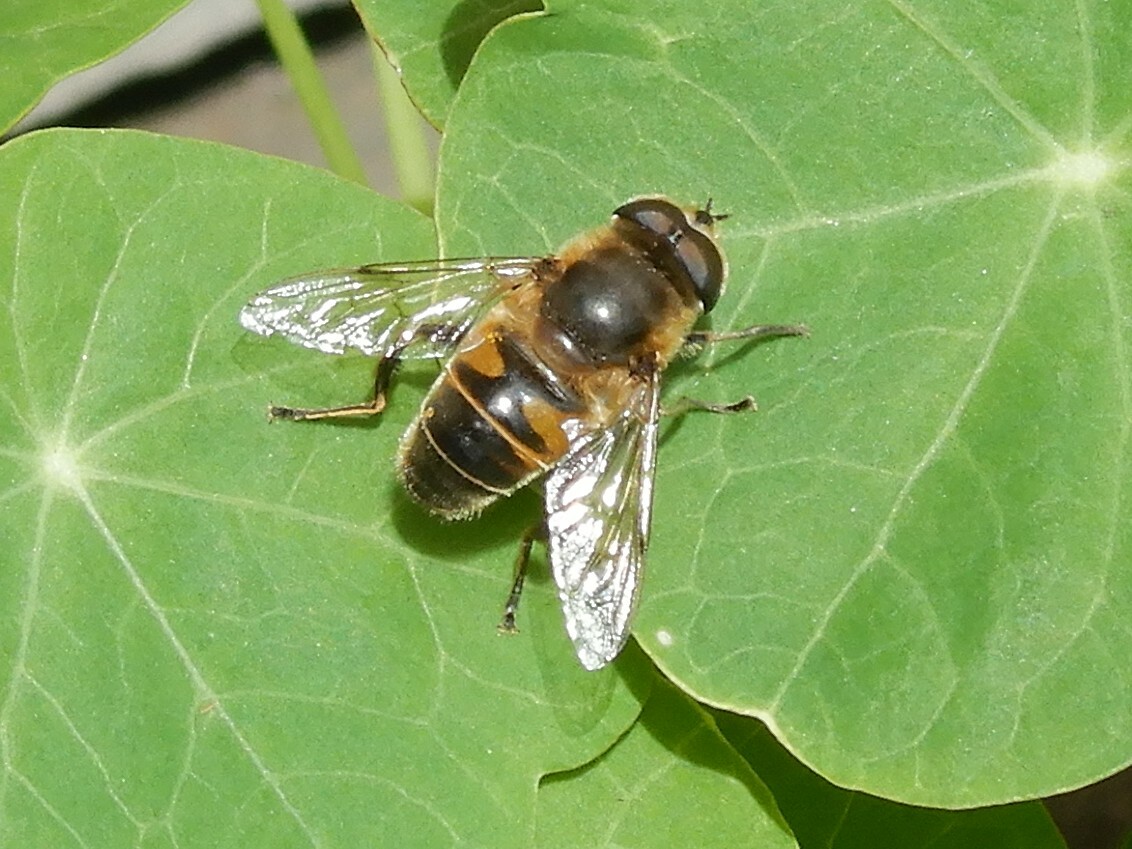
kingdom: Animalia
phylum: Arthropoda
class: Insecta
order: Diptera
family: Syrphidae
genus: Eristalis
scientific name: Eristalis tenax
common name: Drone fly
